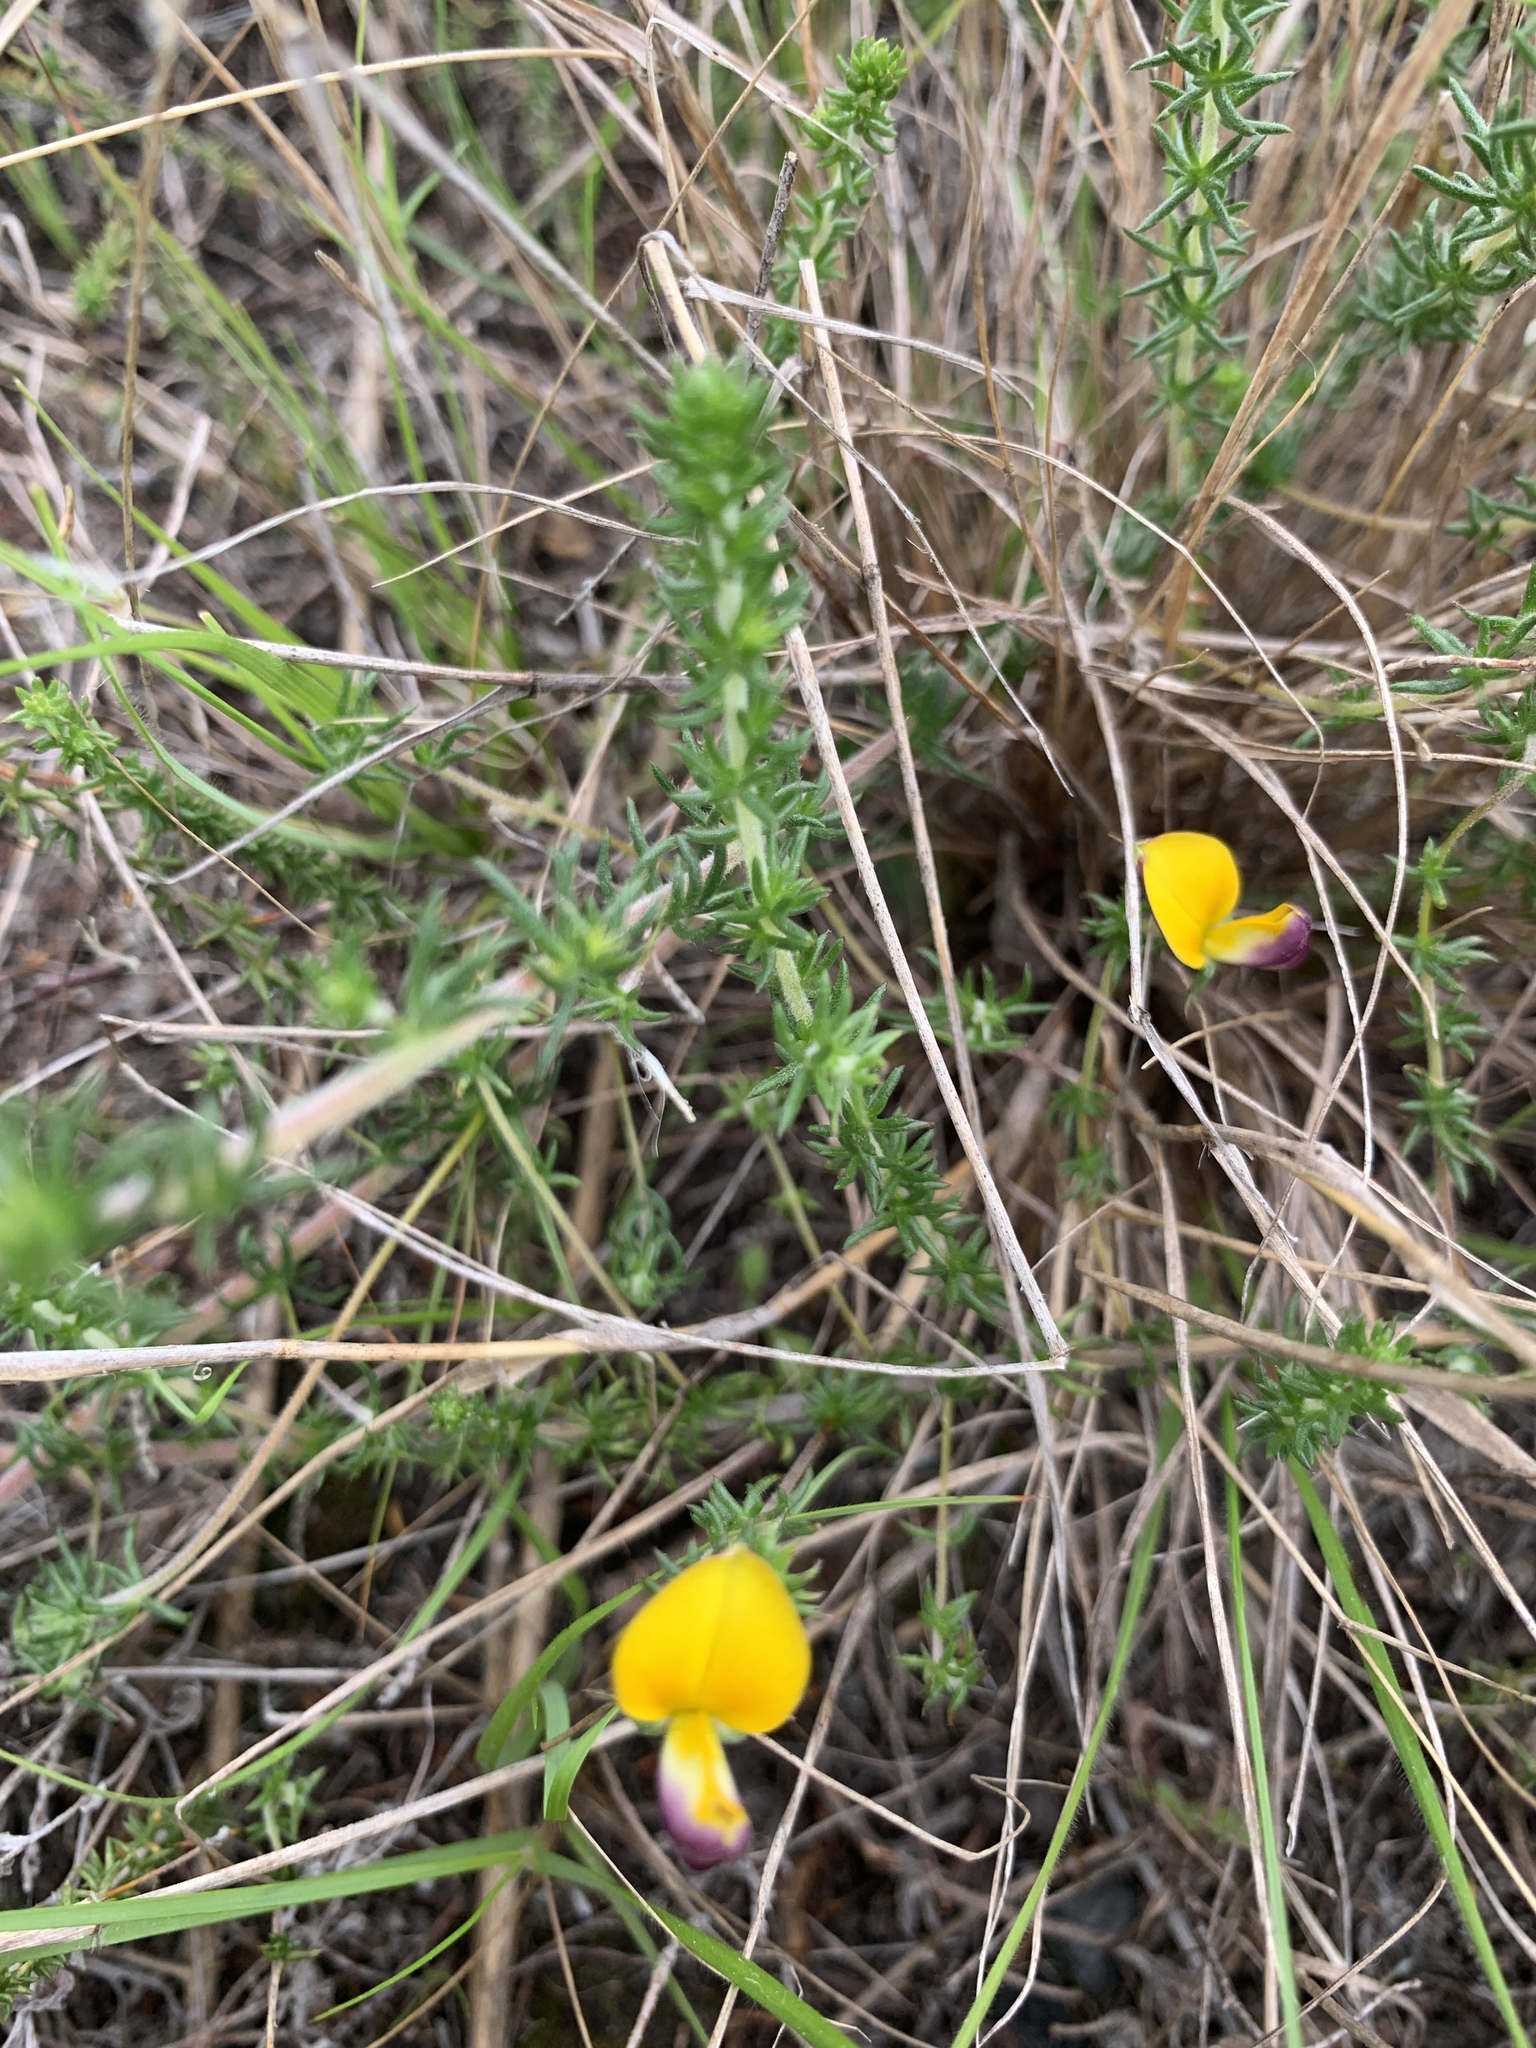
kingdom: Plantae
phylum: Tracheophyta
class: Magnoliopsida
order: Fabales
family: Fabaceae
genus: Aspalathus
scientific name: Aspalathus retroflexa
